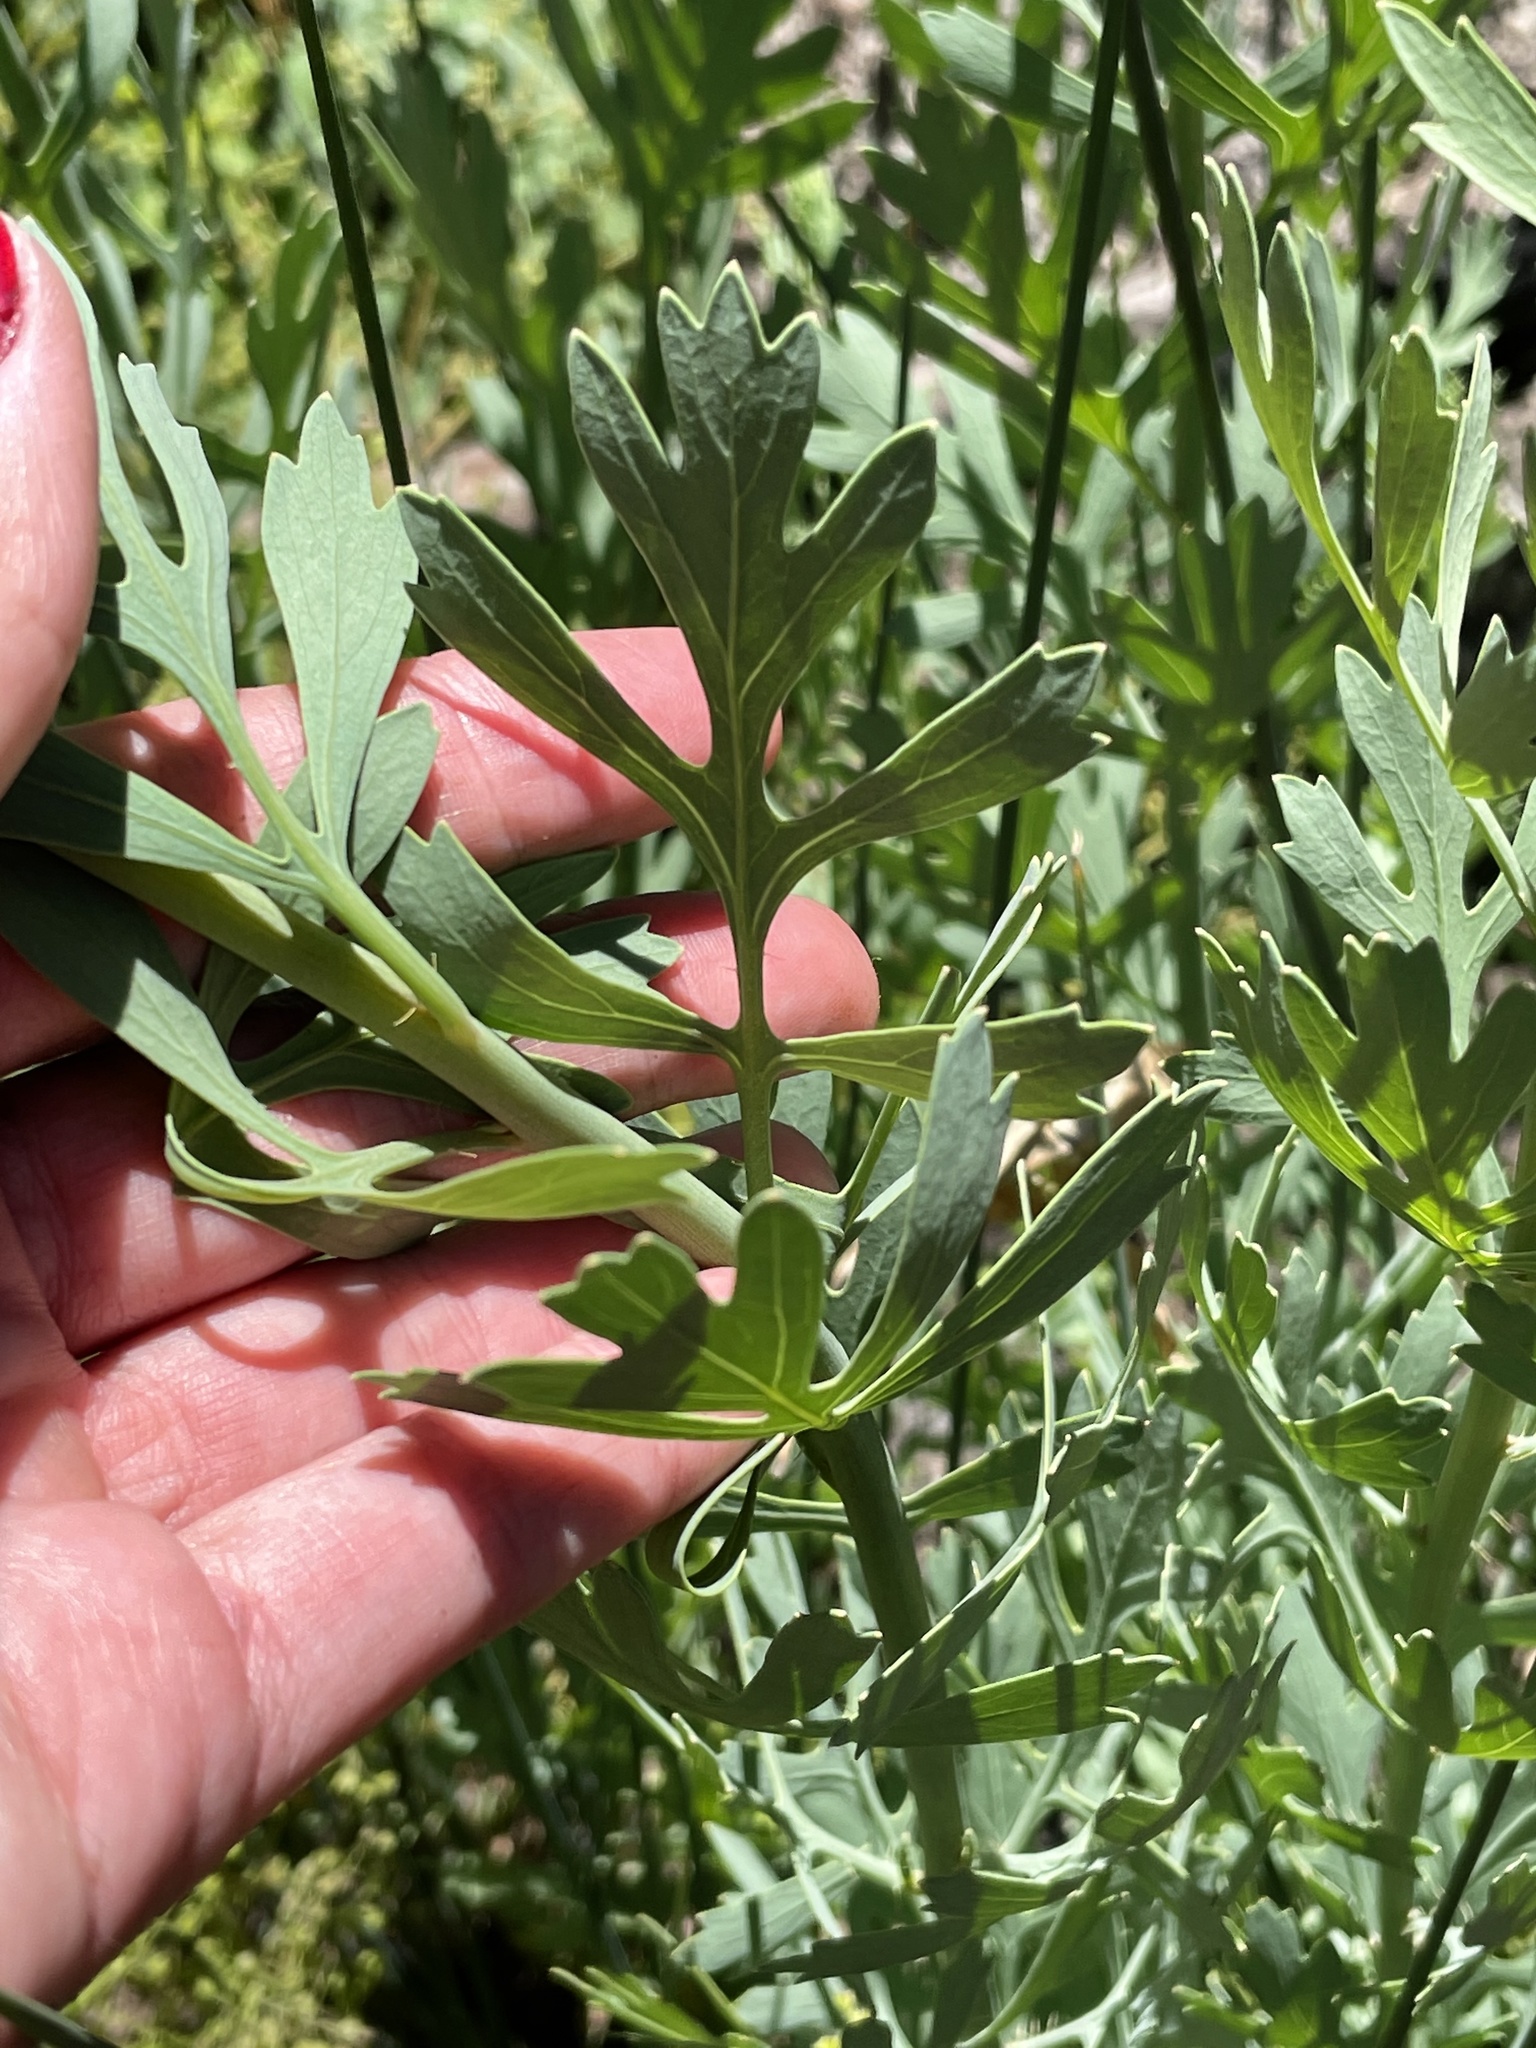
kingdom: Plantae
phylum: Tracheophyta
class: Magnoliopsida
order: Ranunculales
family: Papaveraceae
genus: Romneya
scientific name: Romneya trichocalyx
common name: Hairy matilija-poppy
